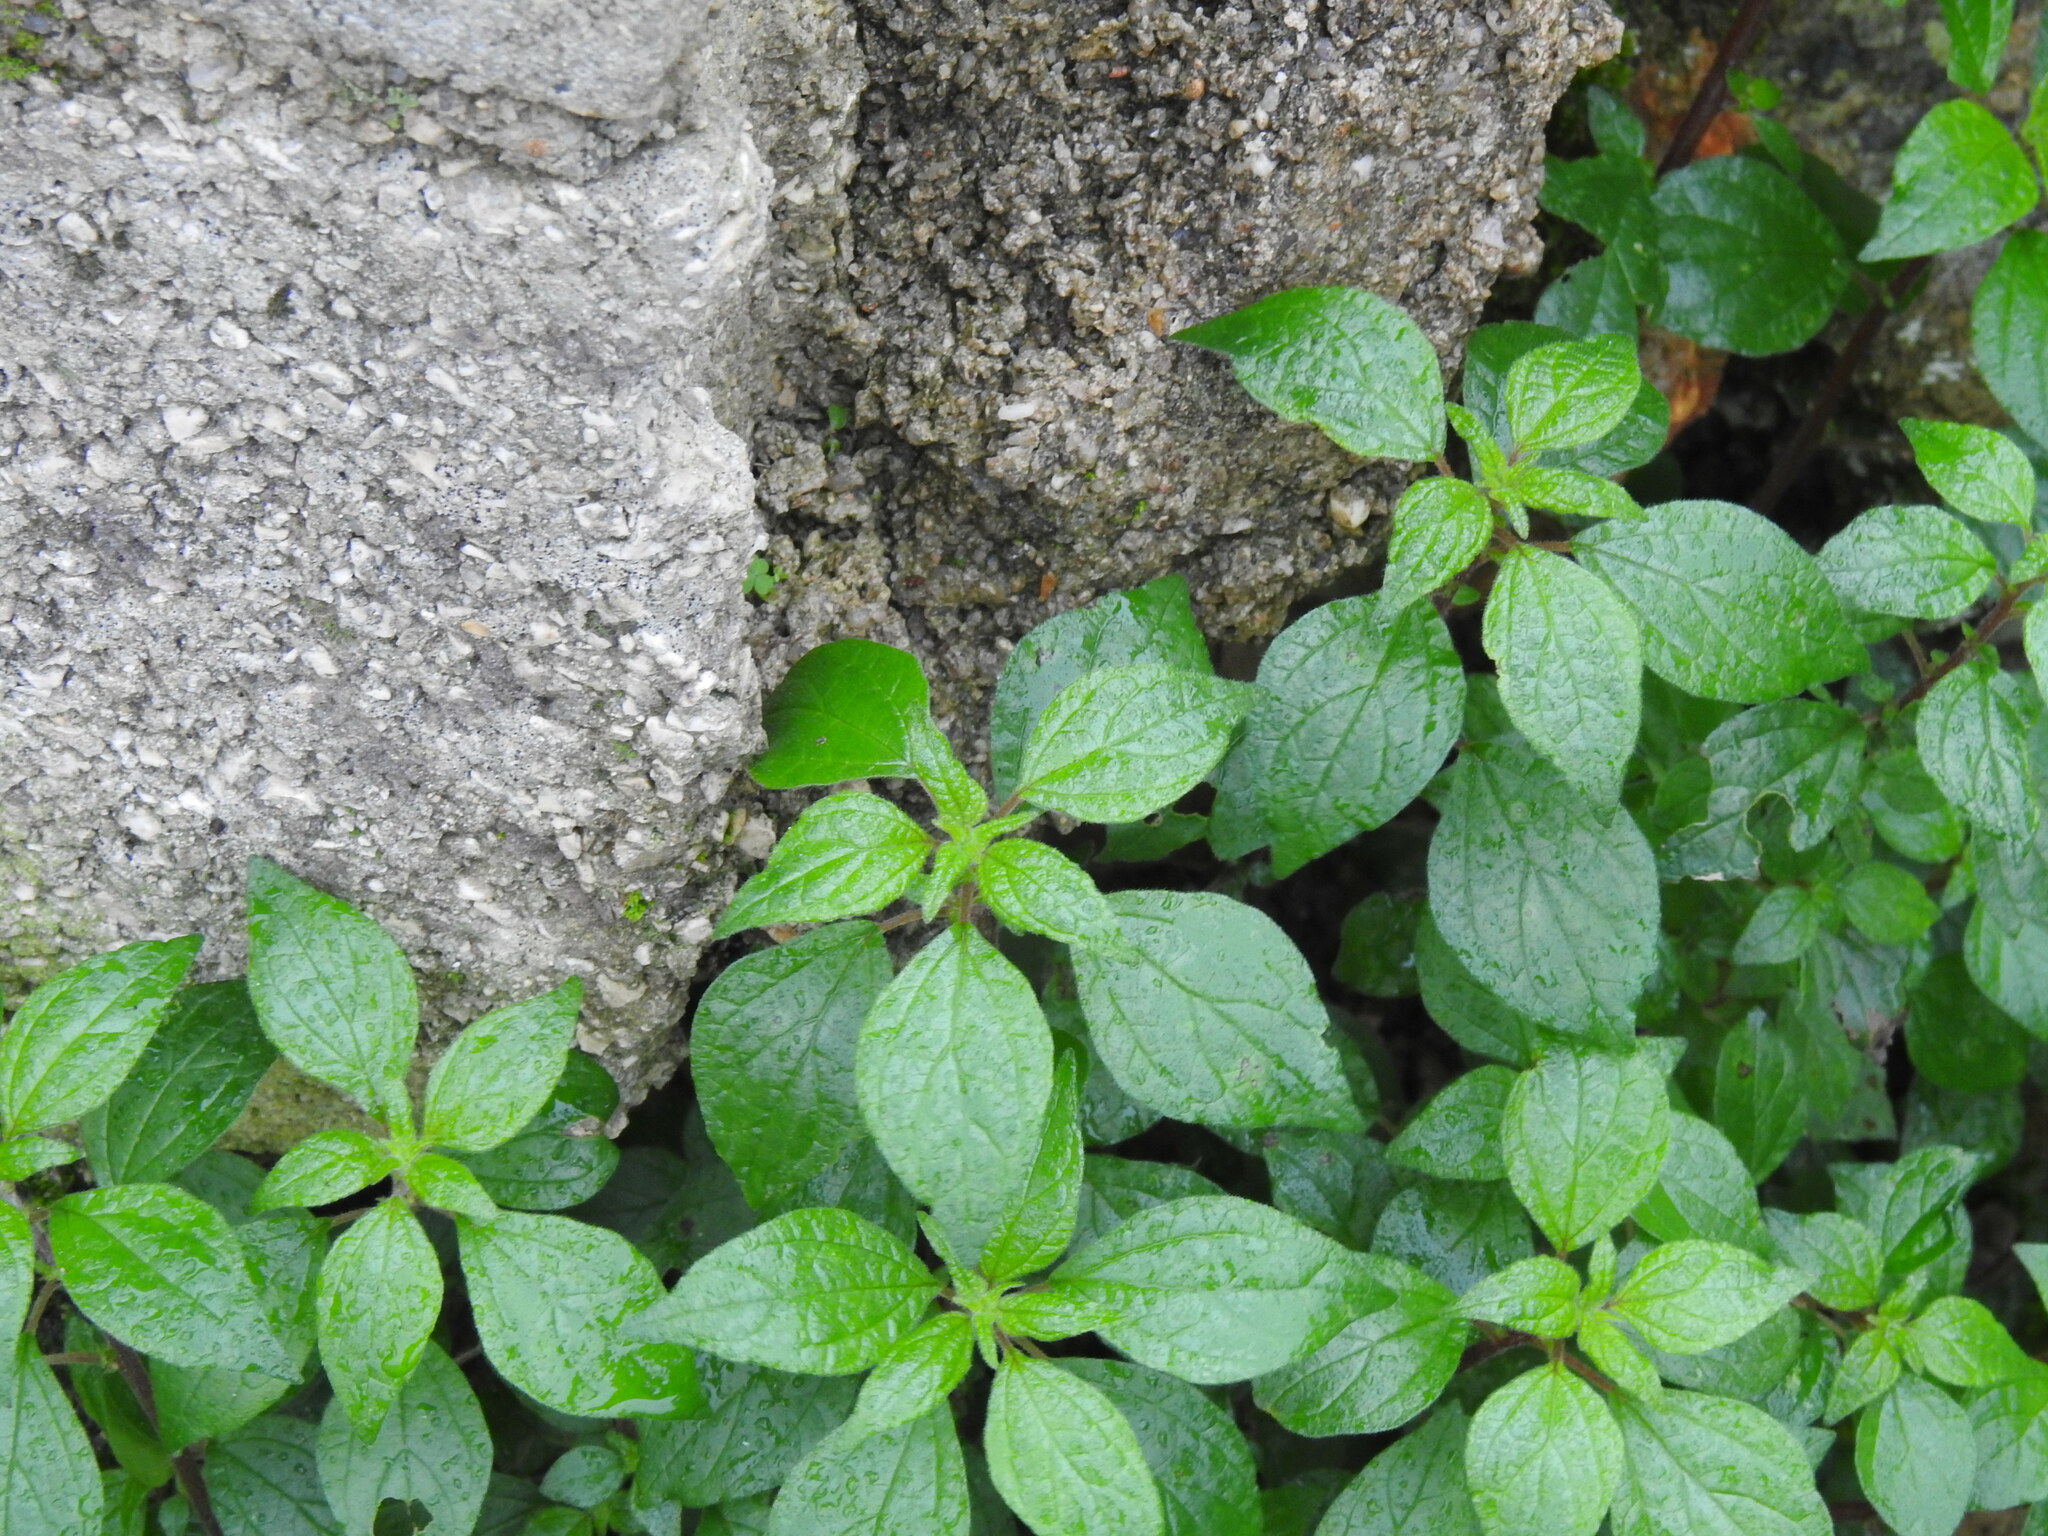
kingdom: Plantae
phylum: Tracheophyta
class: Magnoliopsida
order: Rosales
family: Urticaceae
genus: Parietaria
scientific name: Parietaria judaica
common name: Pellitory-of-the-wall
